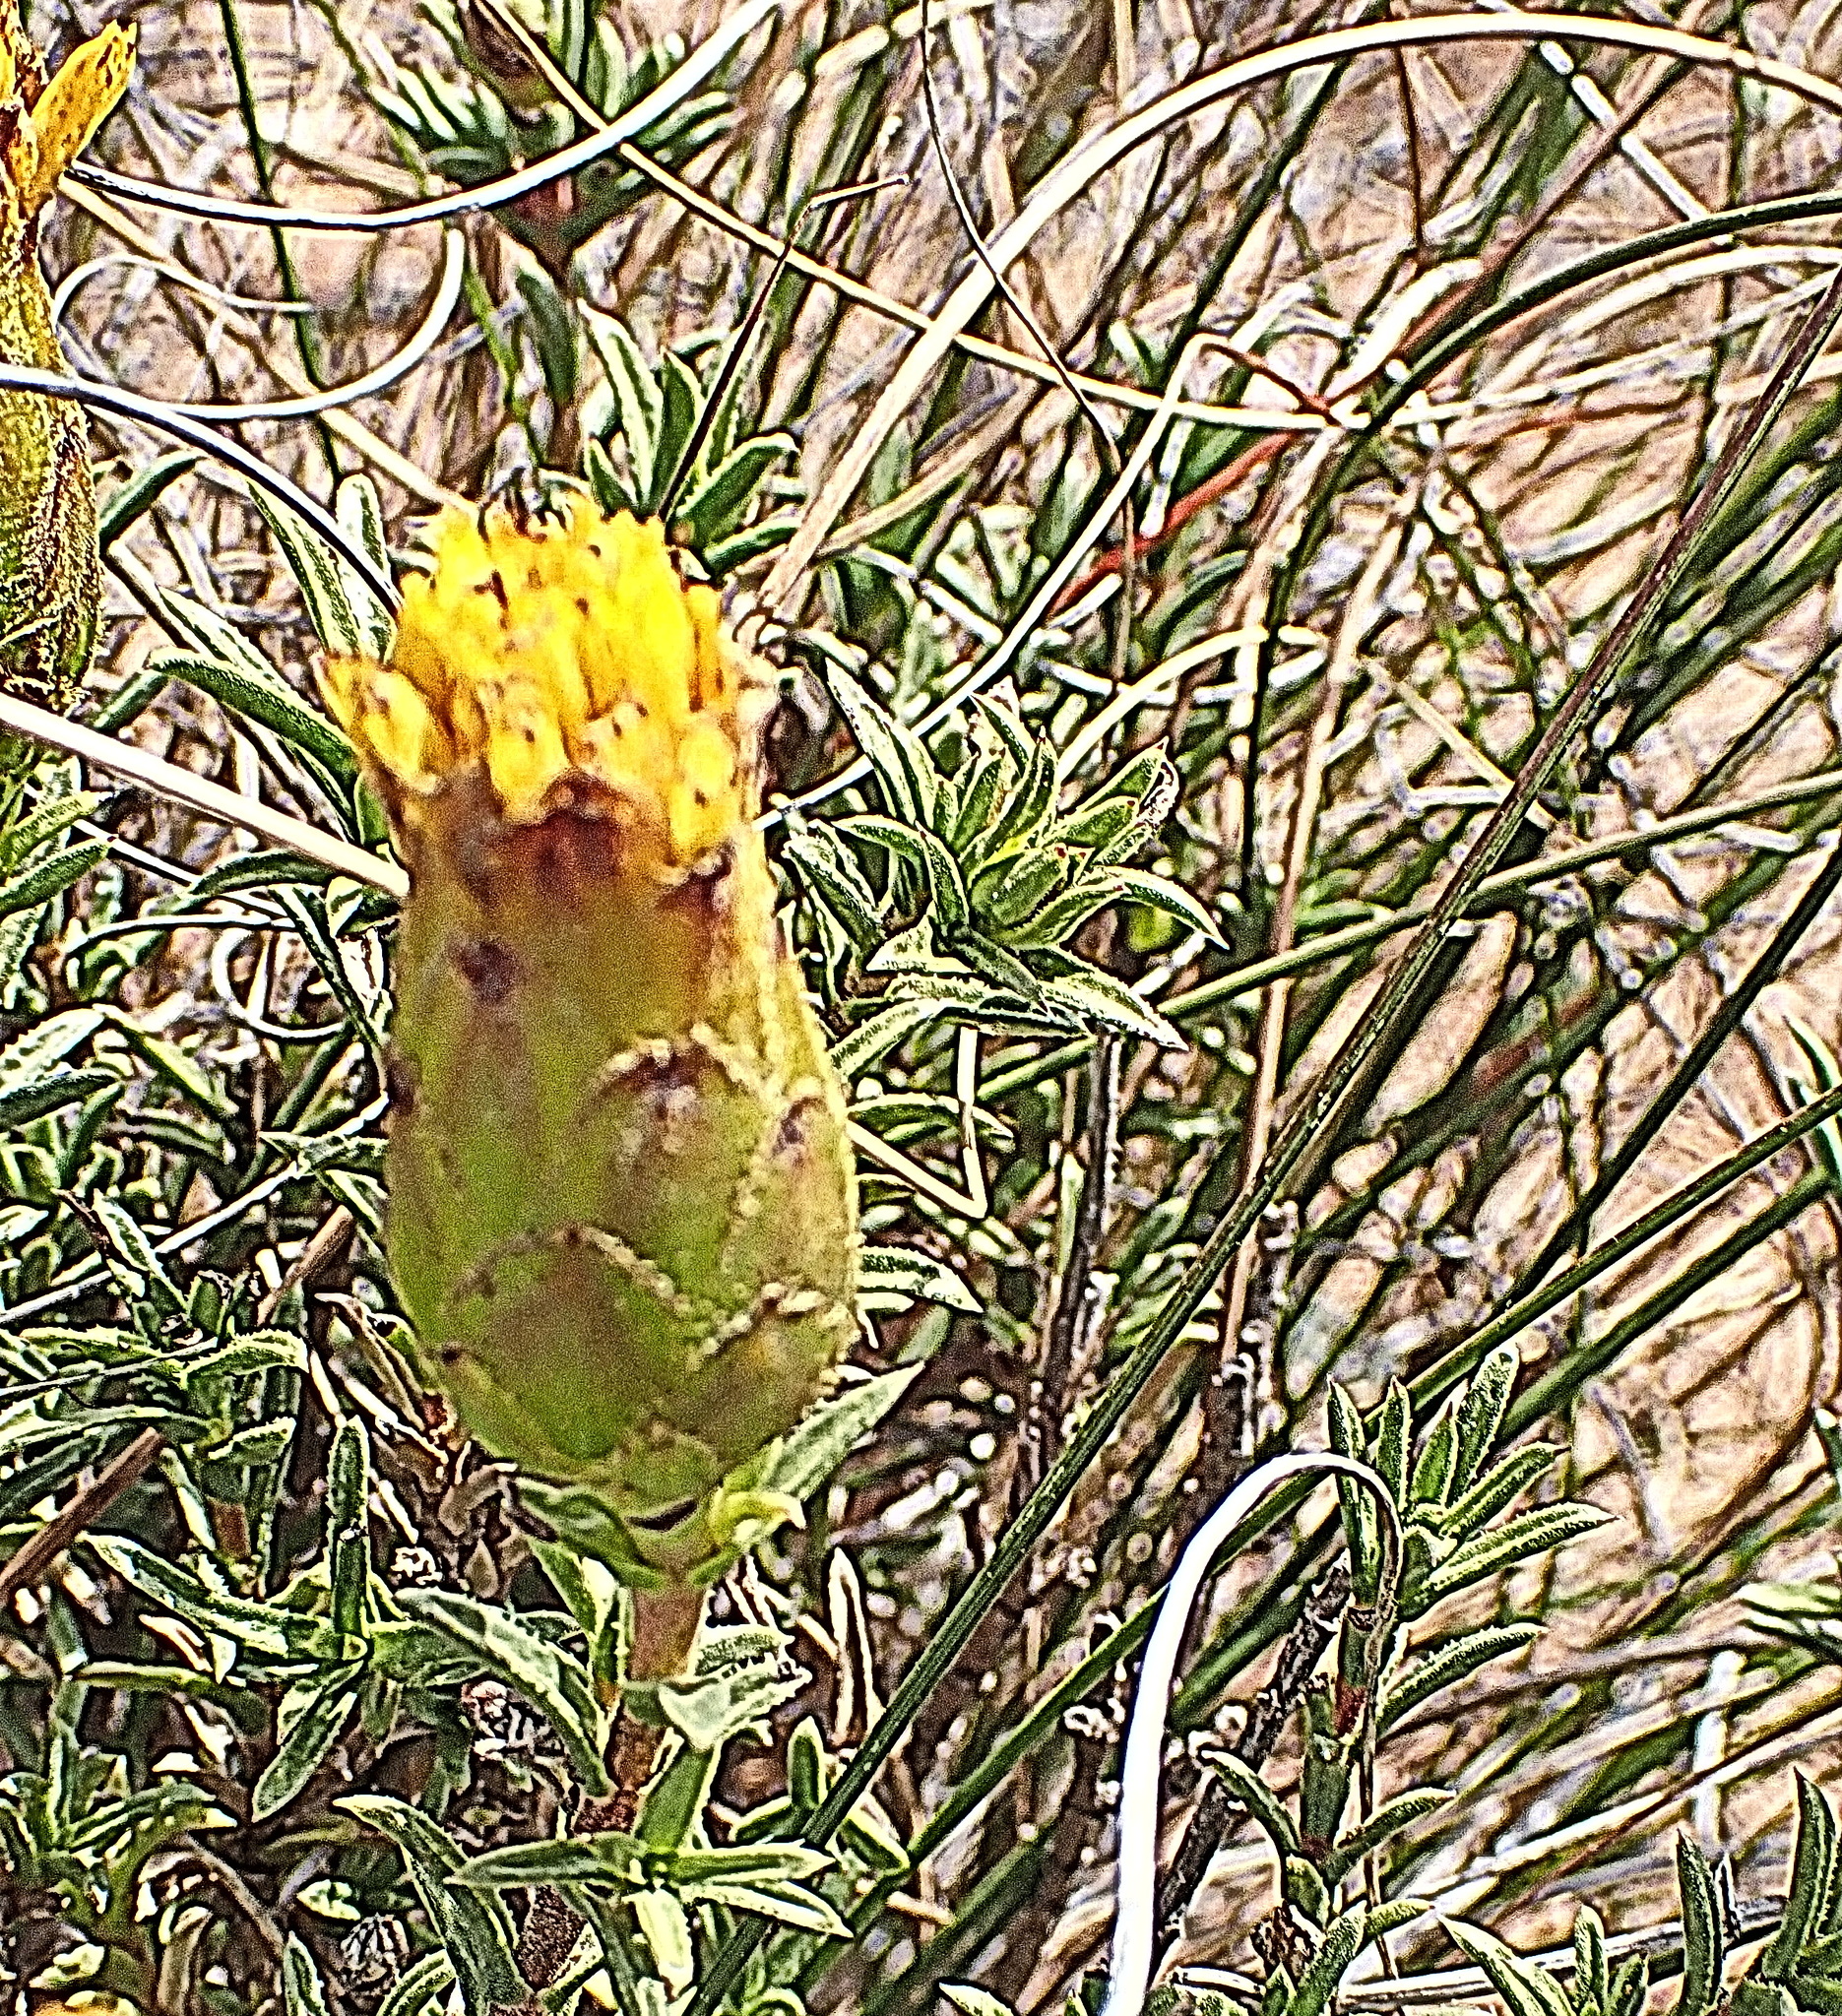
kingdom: Plantae
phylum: Tracheophyta
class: Magnoliopsida
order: Asterales
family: Asteraceae
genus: Pteronia
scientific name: Pteronia elongata
